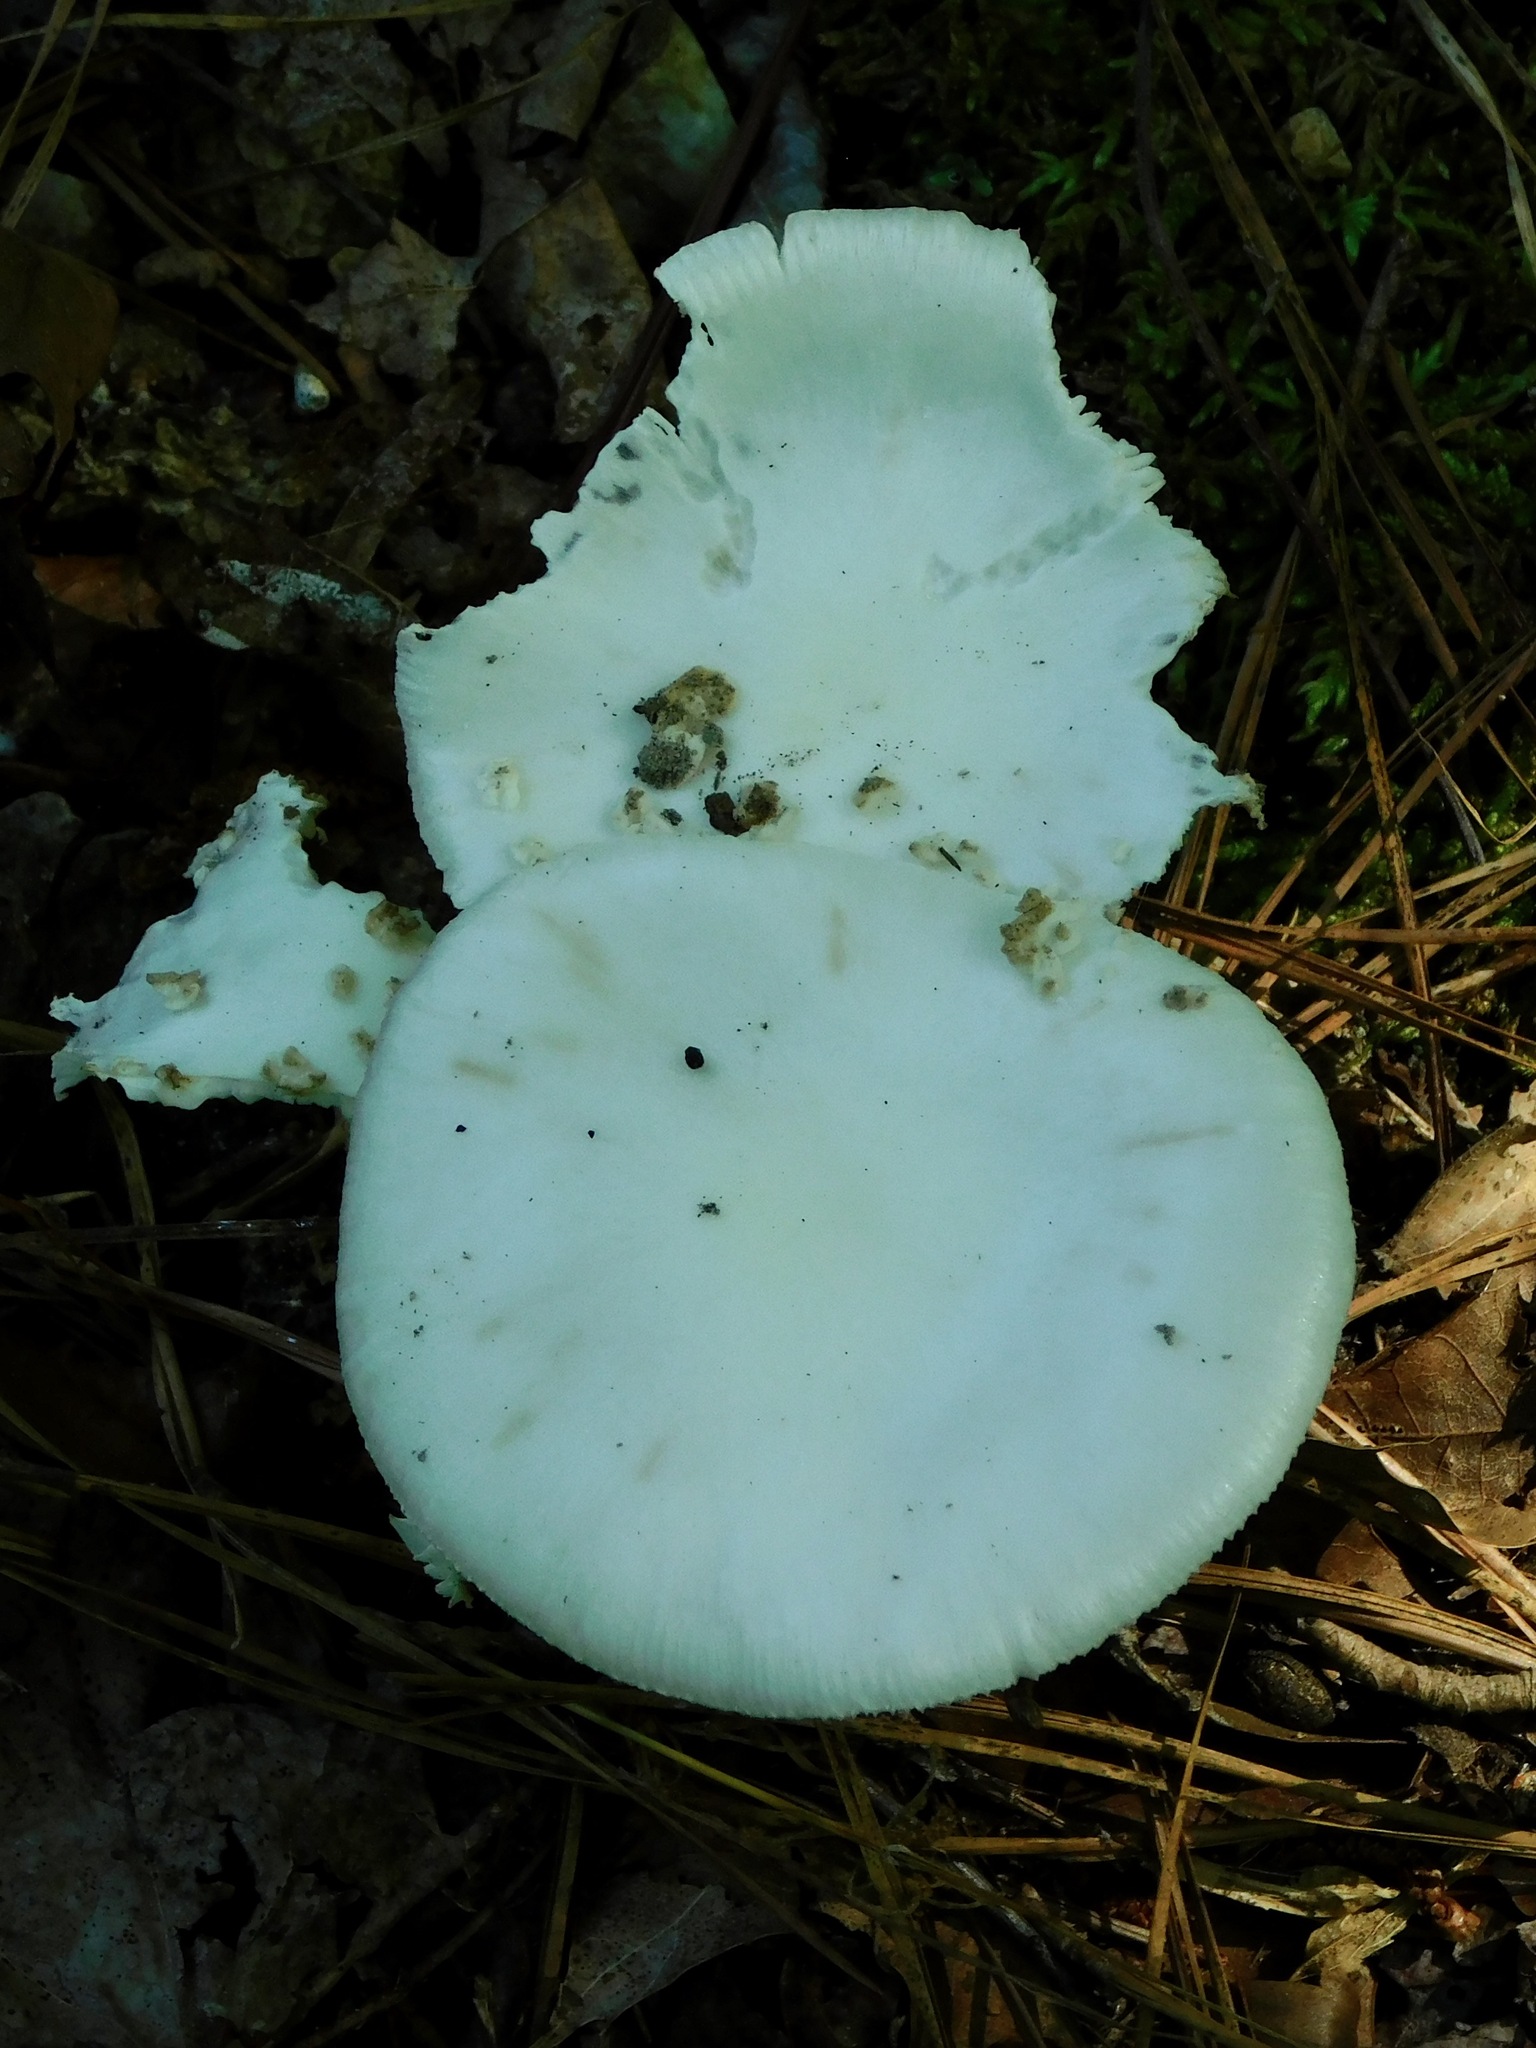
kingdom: Fungi
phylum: Basidiomycota
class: Agaricomycetes
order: Agaricales
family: Amanitaceae
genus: Amanita
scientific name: Amanita bisporigera
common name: Eastern north american destroying angel
